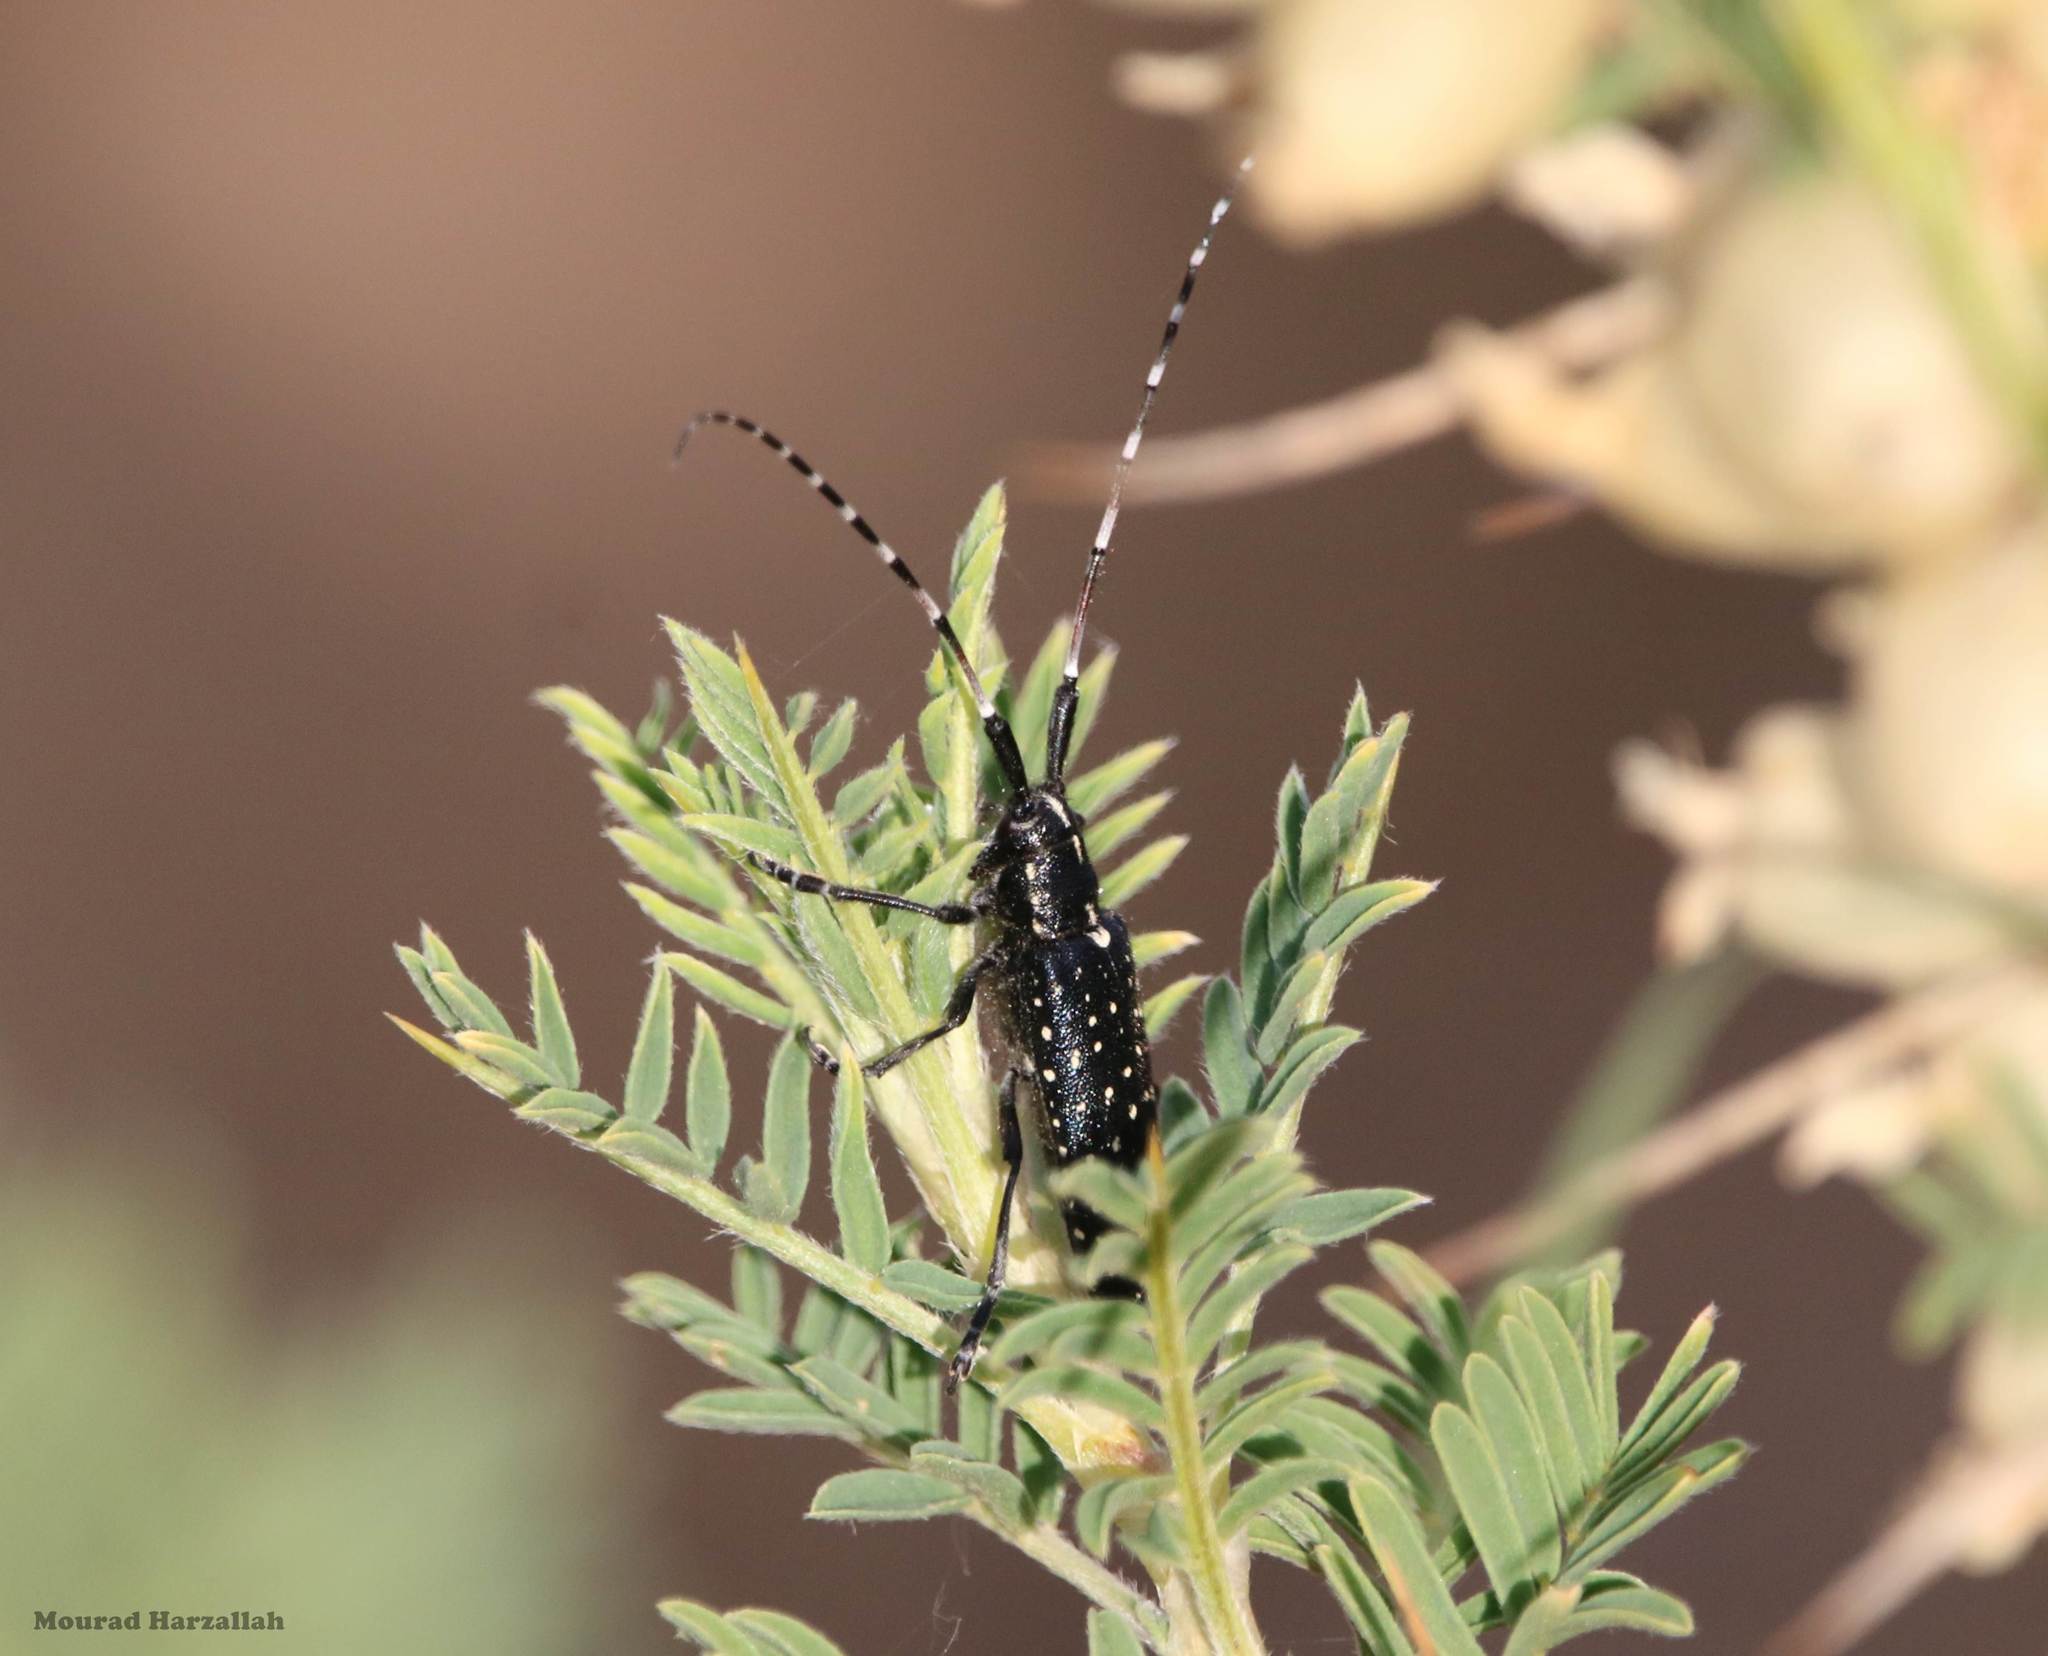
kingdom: Animalia
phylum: Arthropoda
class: Insecta
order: Coleoptera
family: Cerambycidae
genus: Agapanthia
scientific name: Agapanthia irrorata
